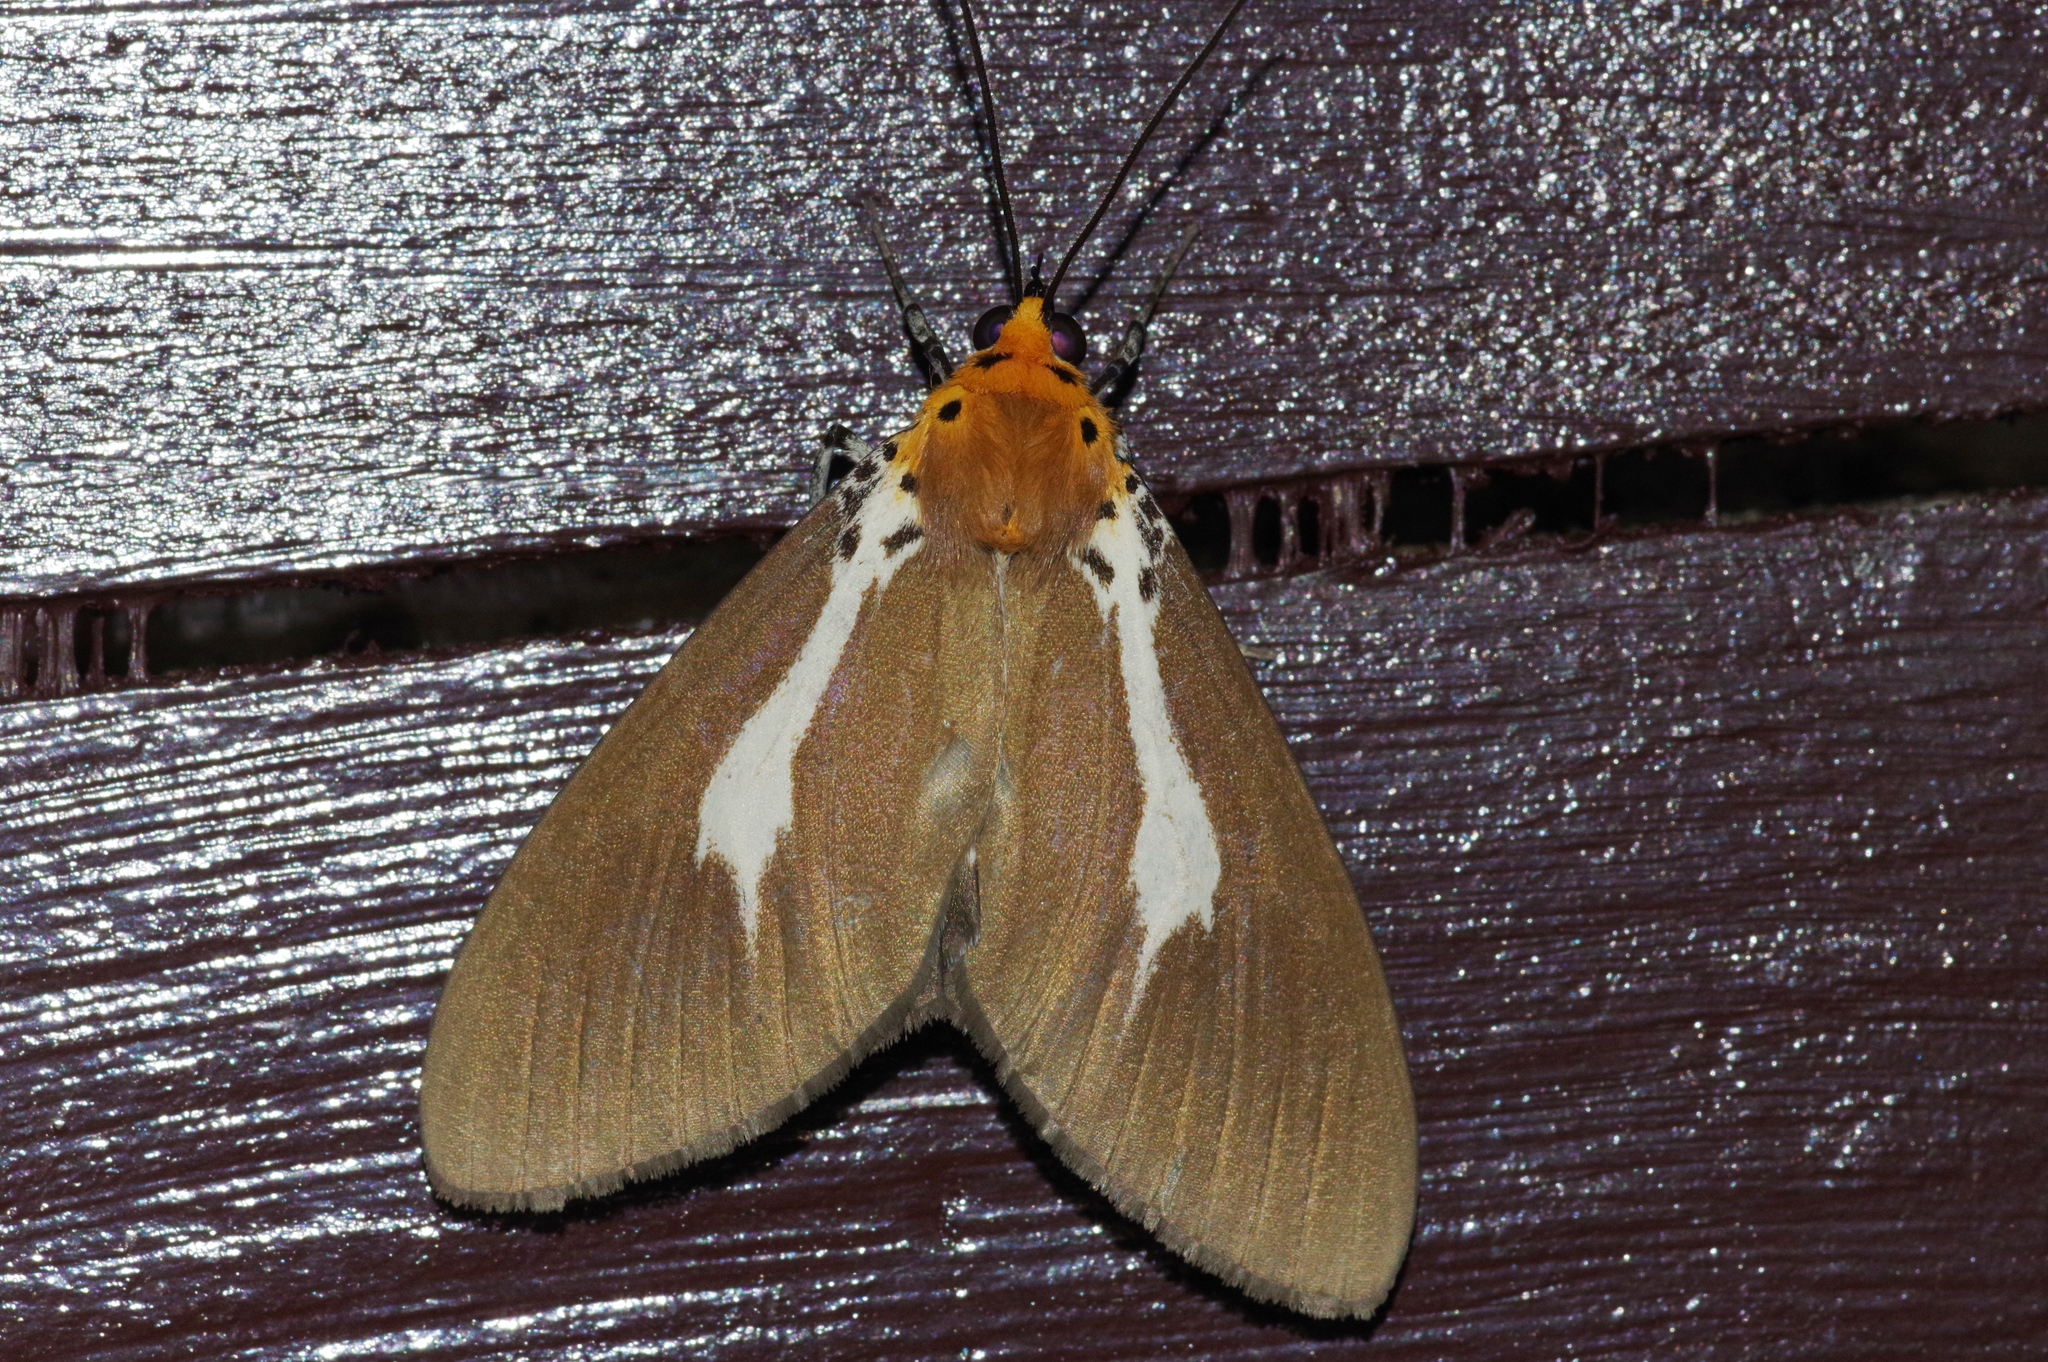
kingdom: Animalia
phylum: Arthropoda
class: Insecta
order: Lepidoptera
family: Erebidae
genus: Asota
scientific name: Asota heliconia
